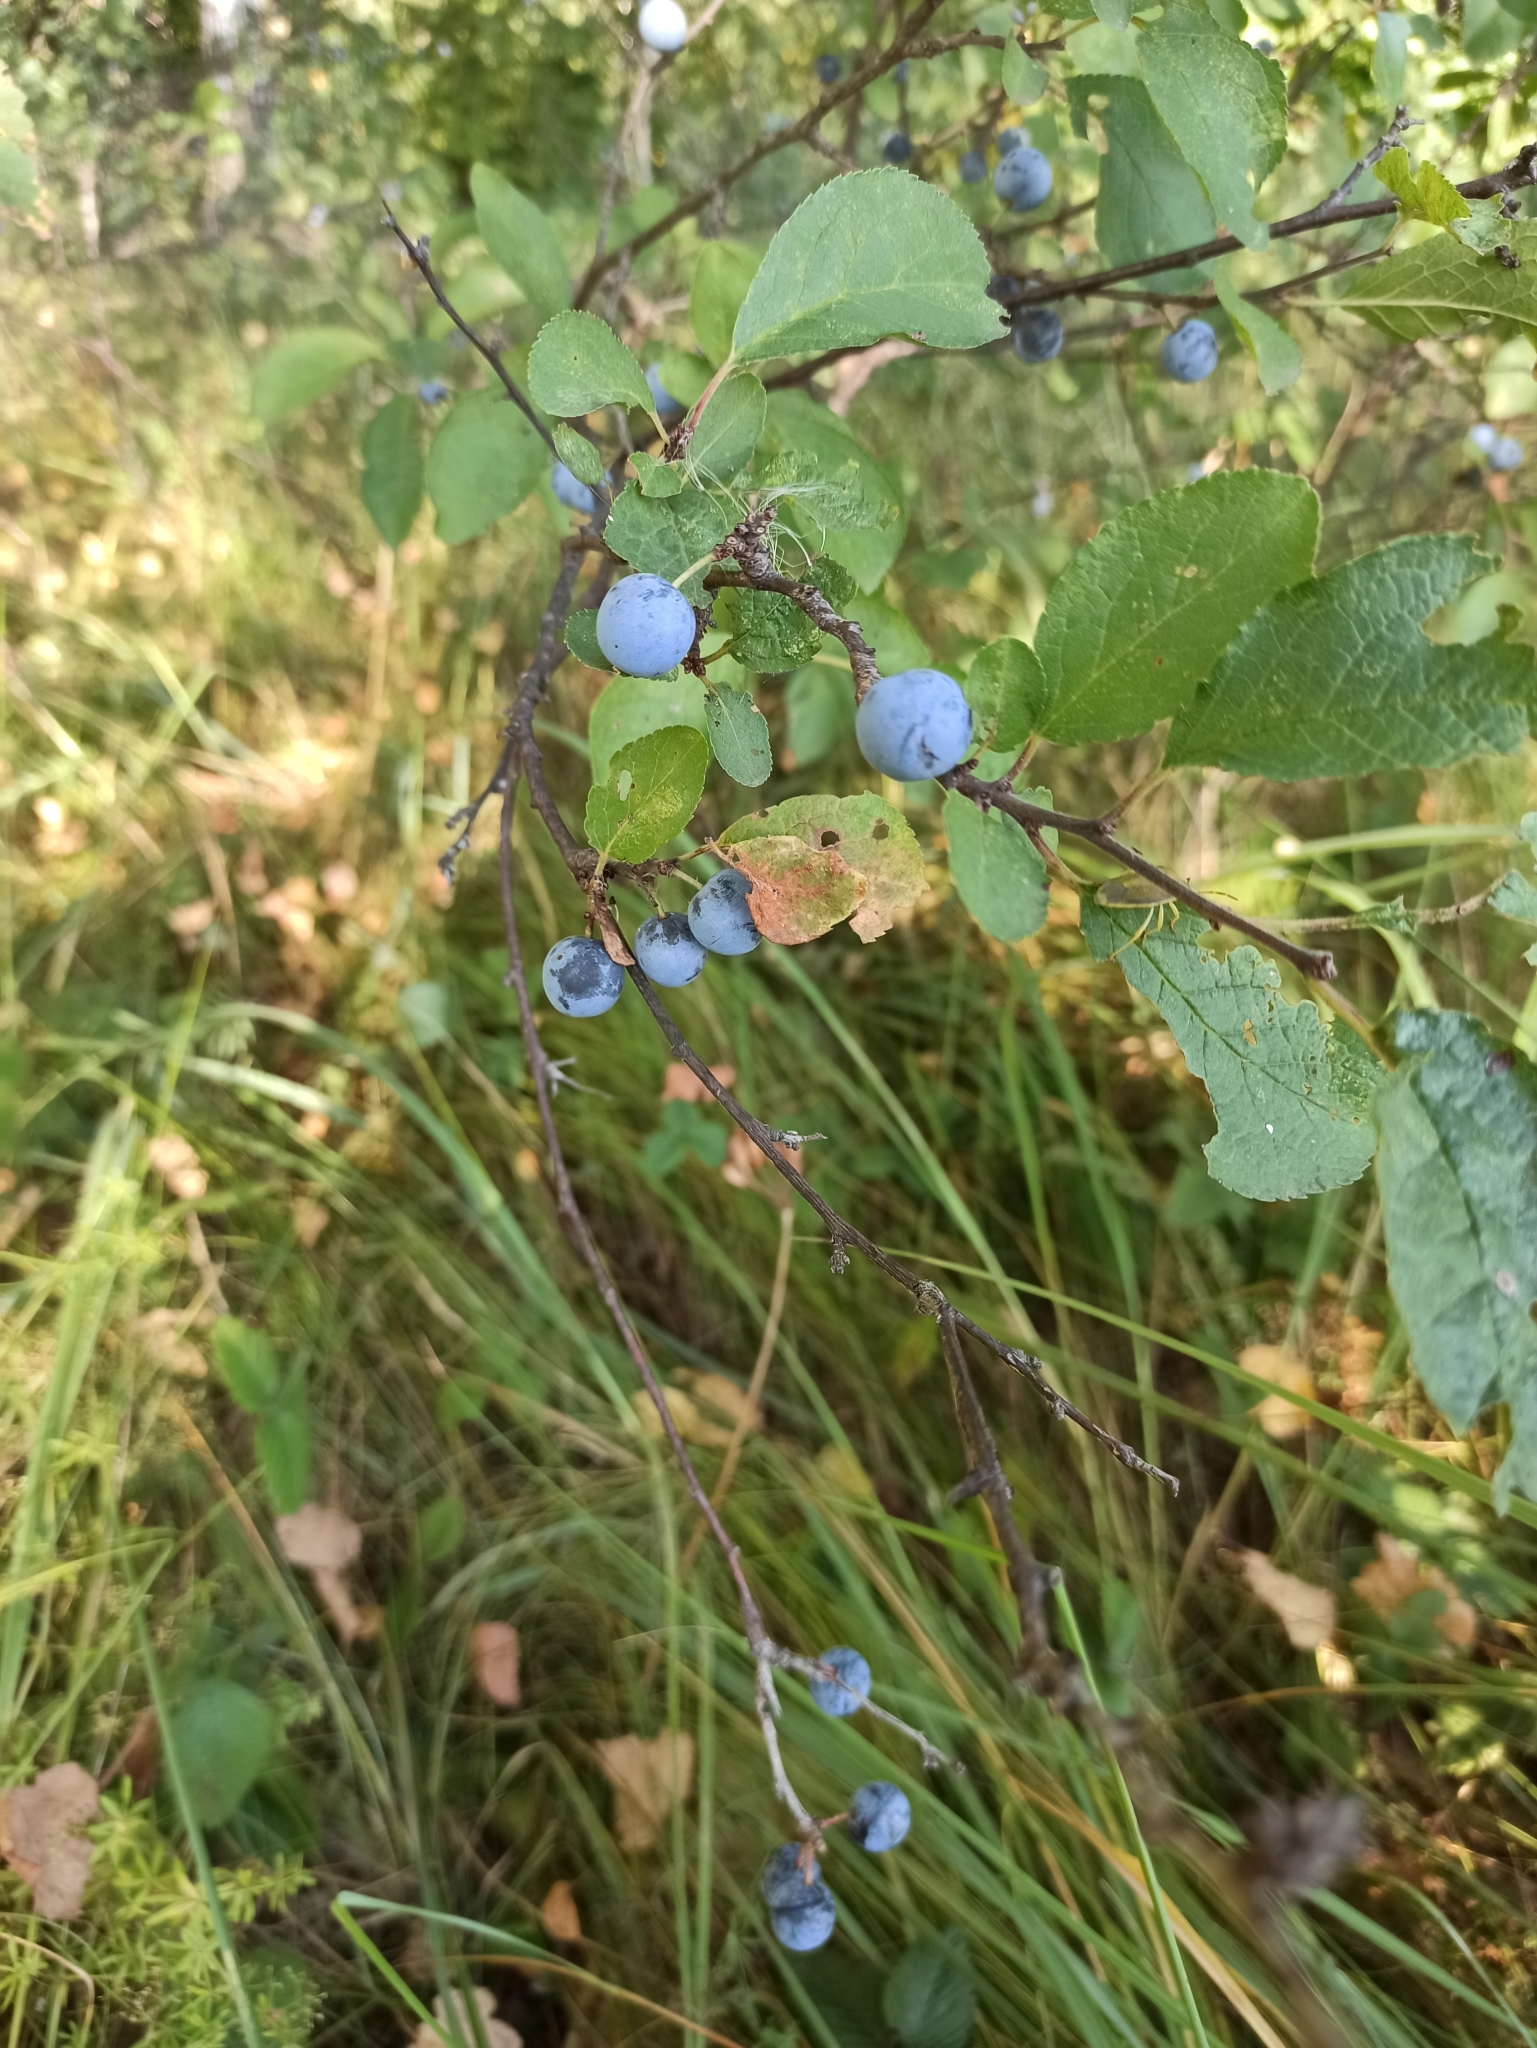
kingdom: Plantae
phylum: Tracheophyta
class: Magnoliopsida
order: Rosales
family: Rosaceae
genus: Prunus
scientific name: Prunus spinosa
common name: Blackthorn
